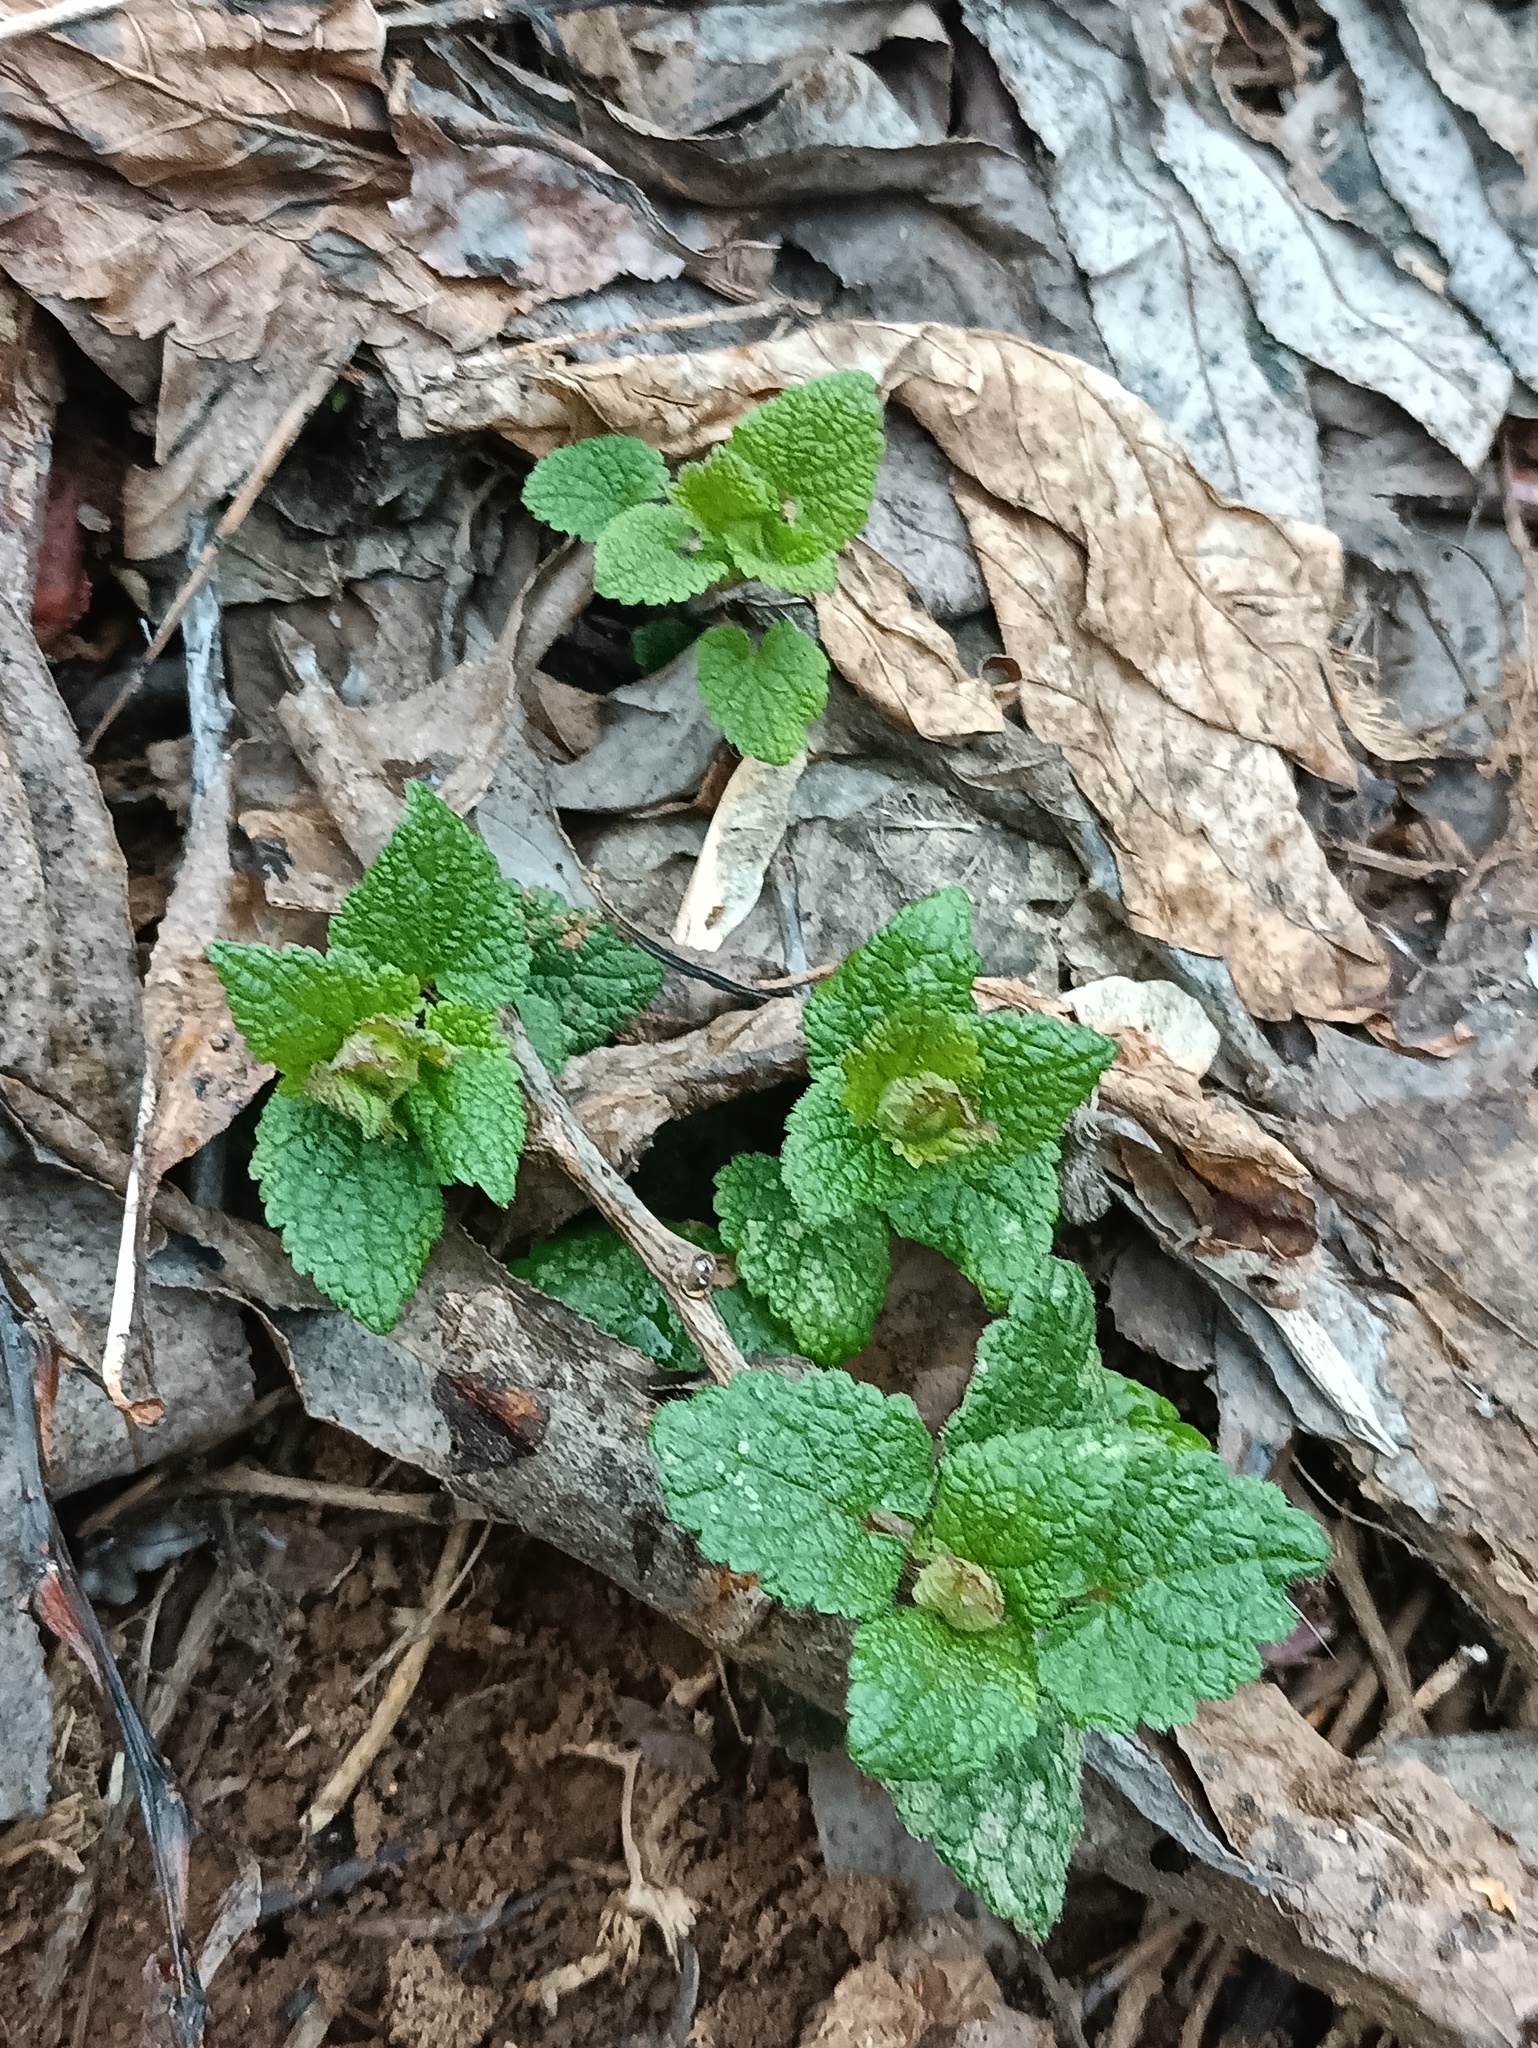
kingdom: Plantae
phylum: Tracheophyta
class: Magnoliopsida
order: Lamiales
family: Lamiaceae
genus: Lamium
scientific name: Lamium maculatum
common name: Spotted dead-nettle
